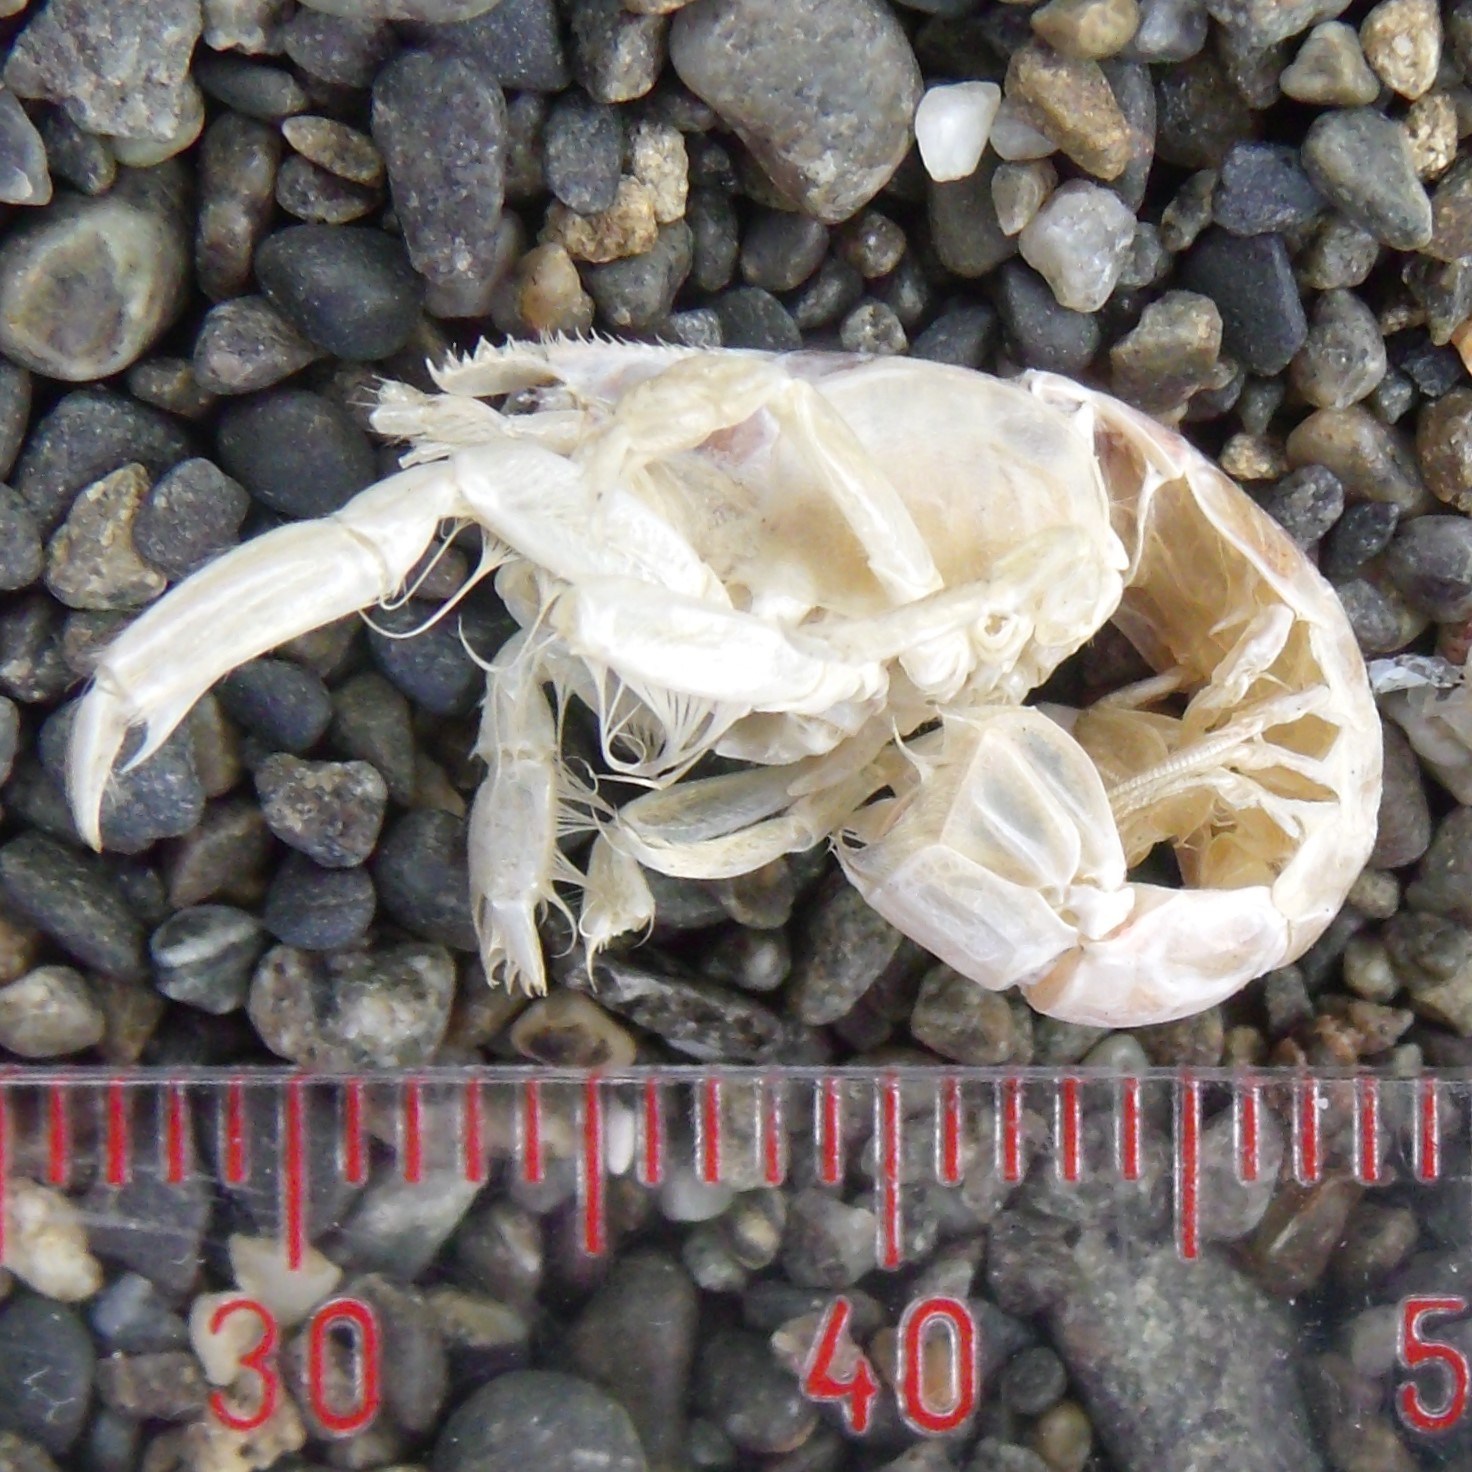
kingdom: Animalia
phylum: Arthropoda
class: Malacostraca
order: Decapoda
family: Upogebiidae
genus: Upogebia
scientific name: Upogebia hirtifrons
